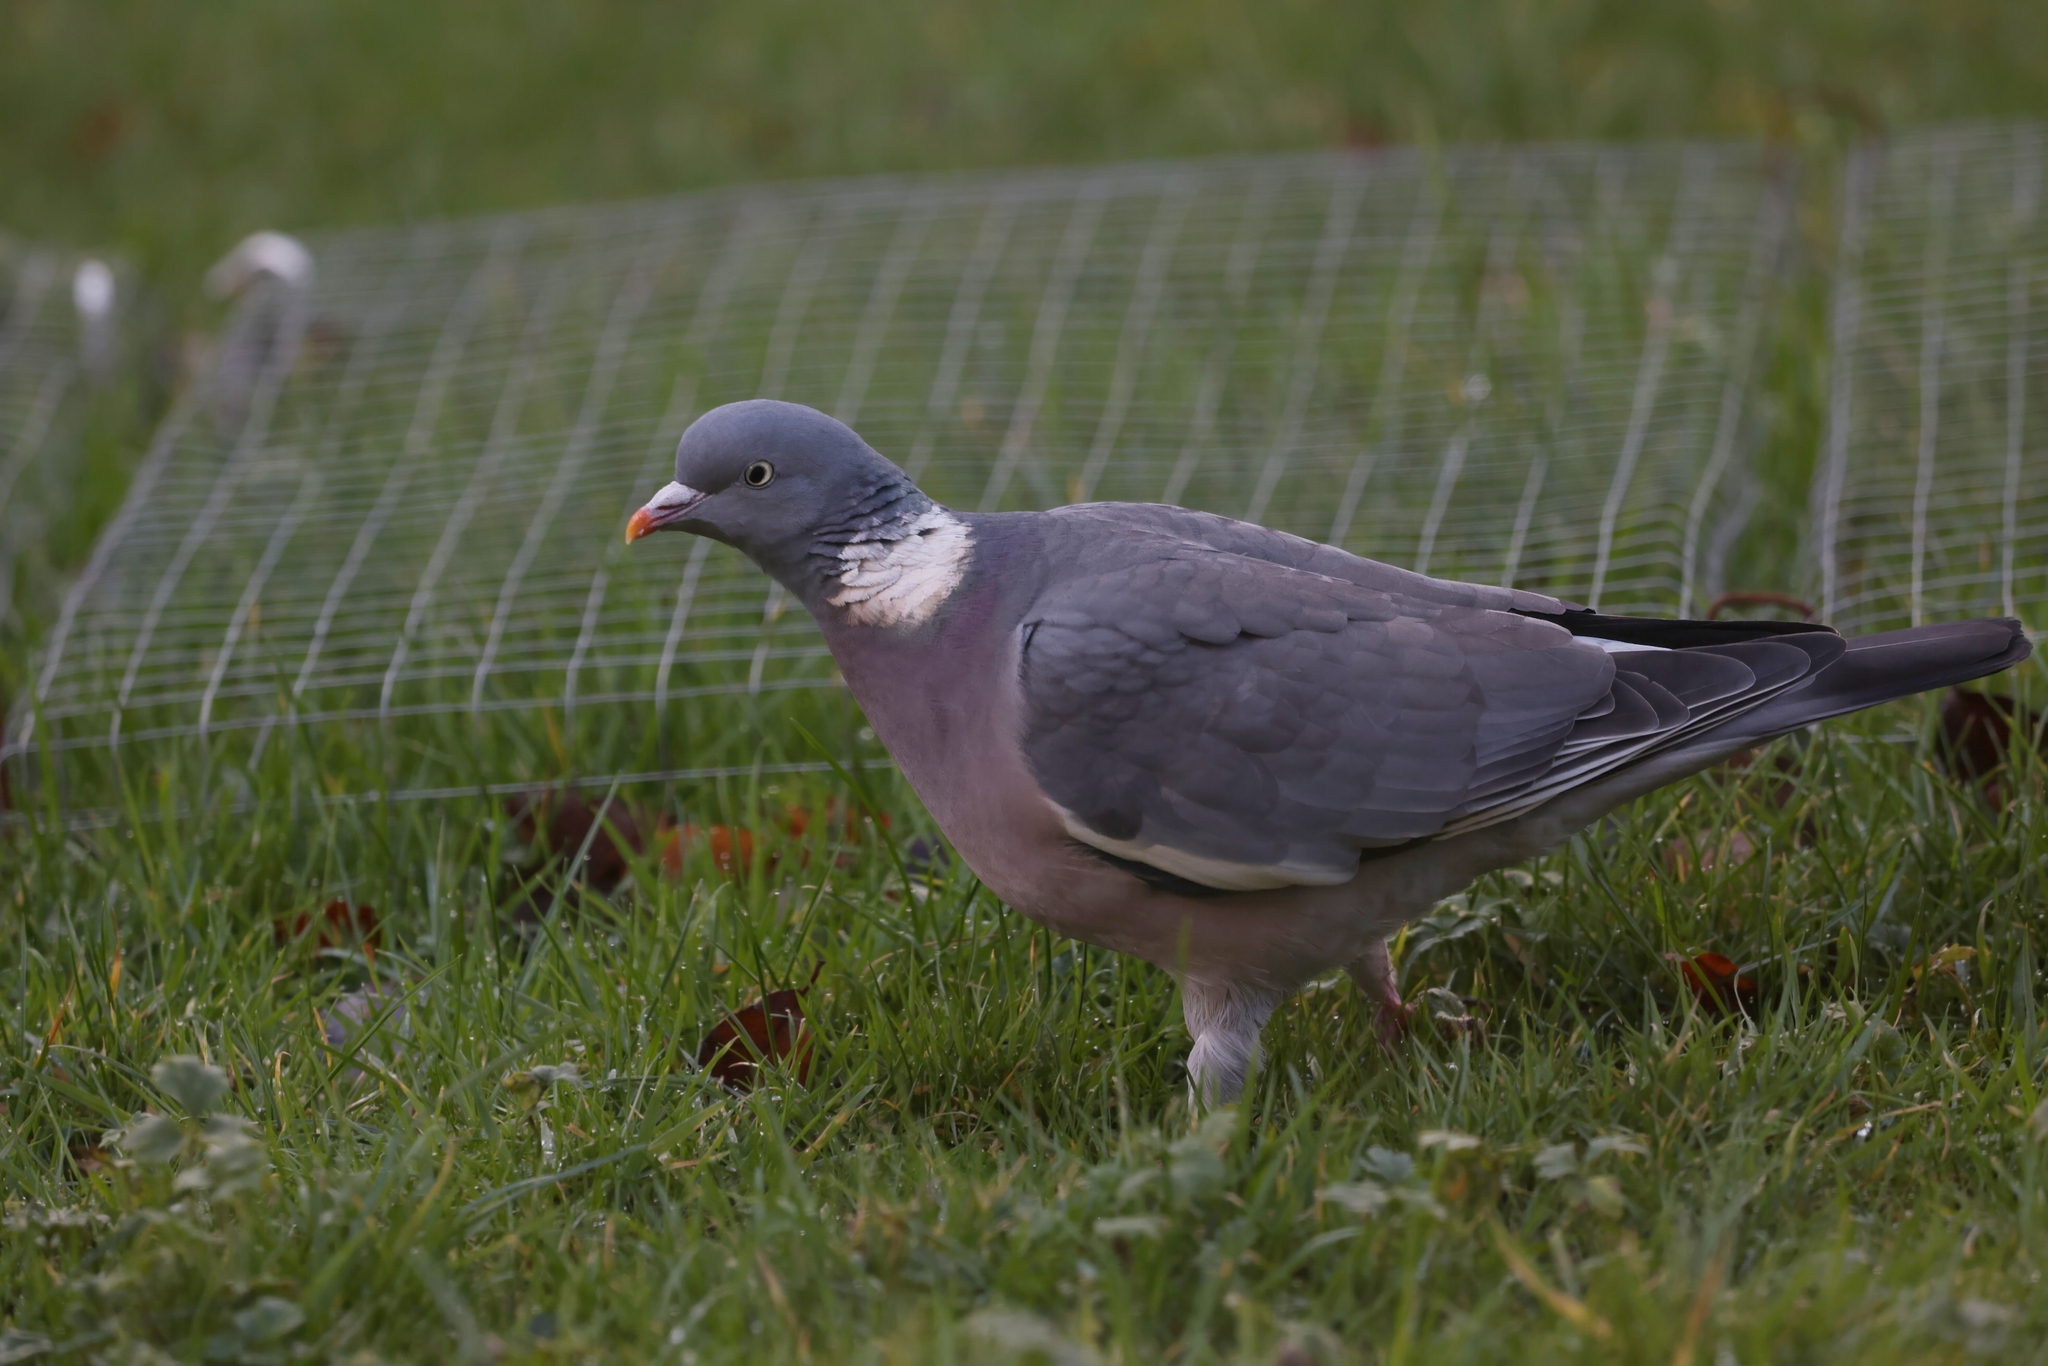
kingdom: Animalia
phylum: Chordata
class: Aves
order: Columbiformes
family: Columbidae
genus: Columba
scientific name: Columba palumbus
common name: Common wood pigeon
